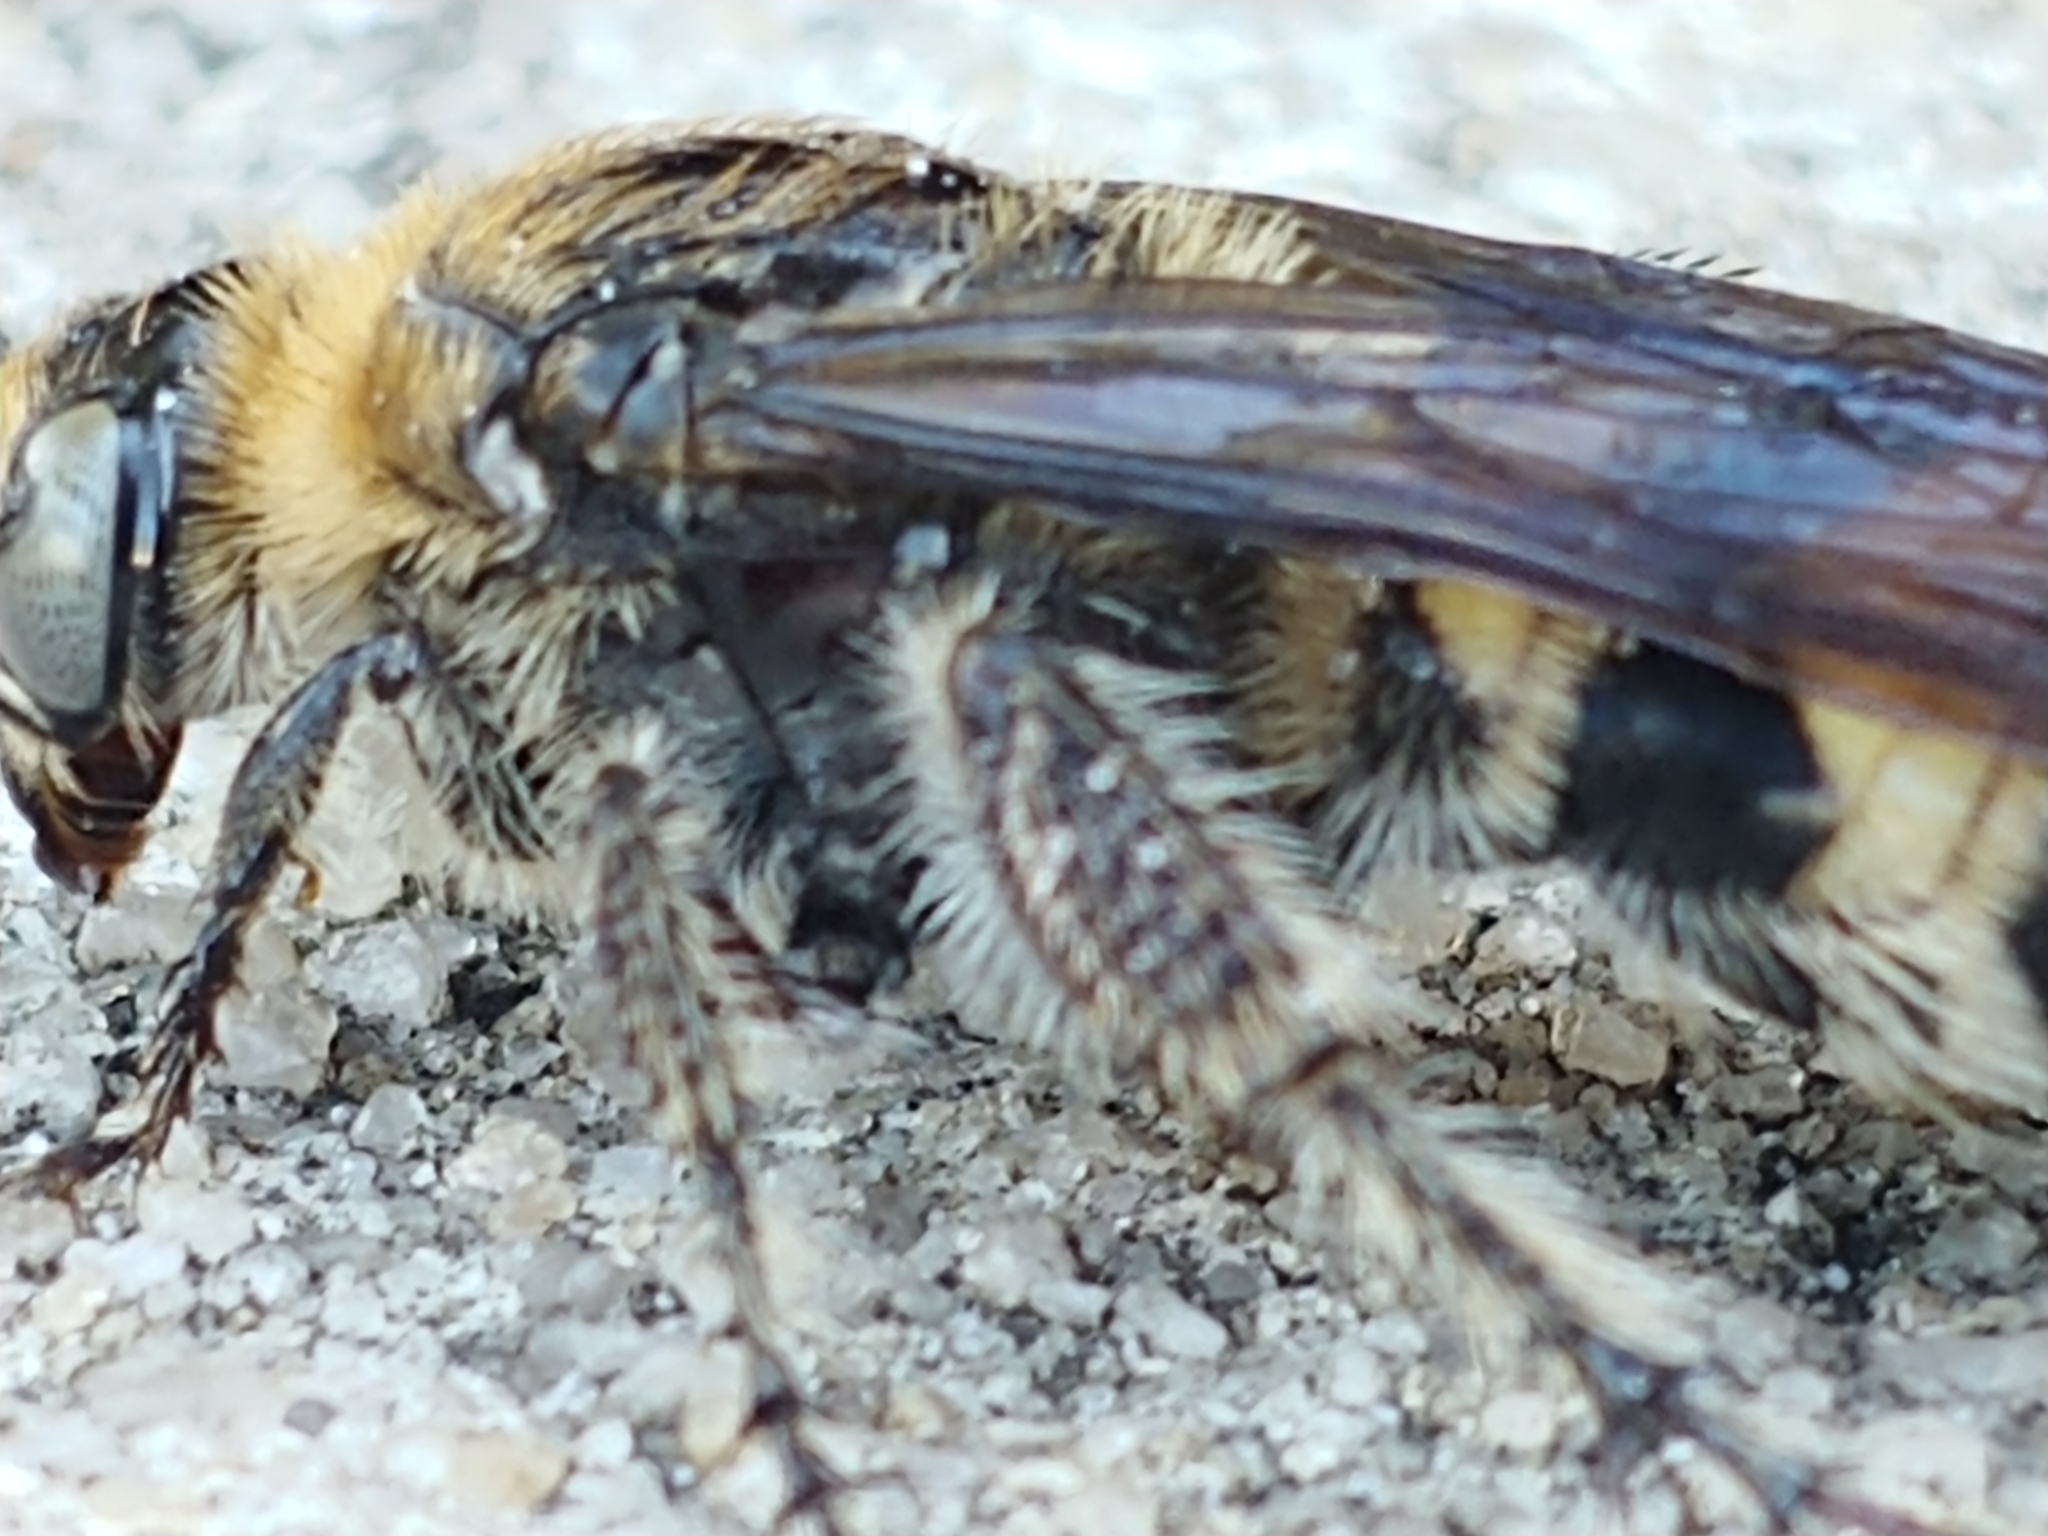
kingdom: Animalia
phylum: Arthropoda
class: Insecta
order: Hymenoptera
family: Scoliidae
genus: Dielis
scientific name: Dielis
